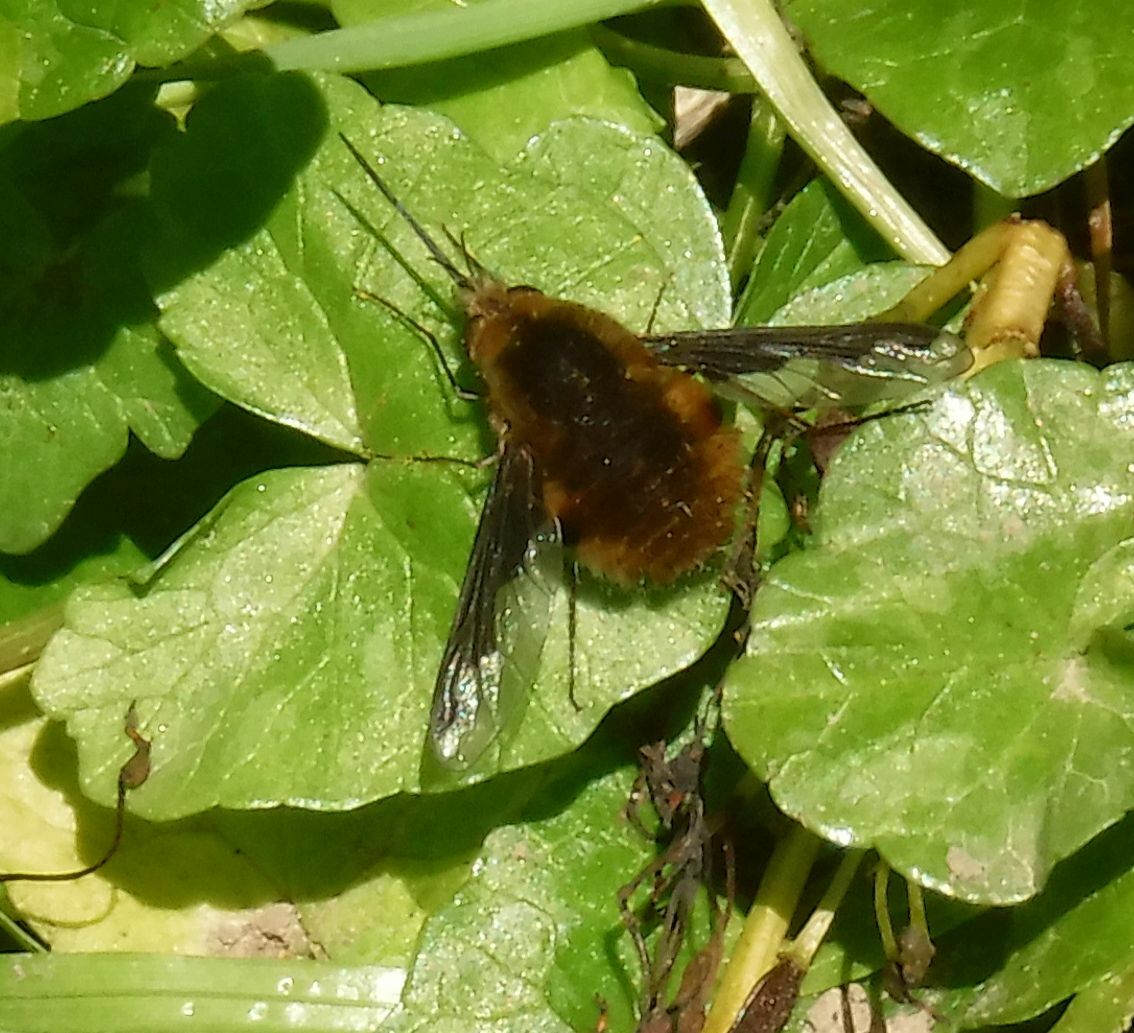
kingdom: Animalia
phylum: Arthropoda
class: Insecta
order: Diptera
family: Bombyliidae
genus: Bombylius
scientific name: Bombylius major
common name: Bee fly
